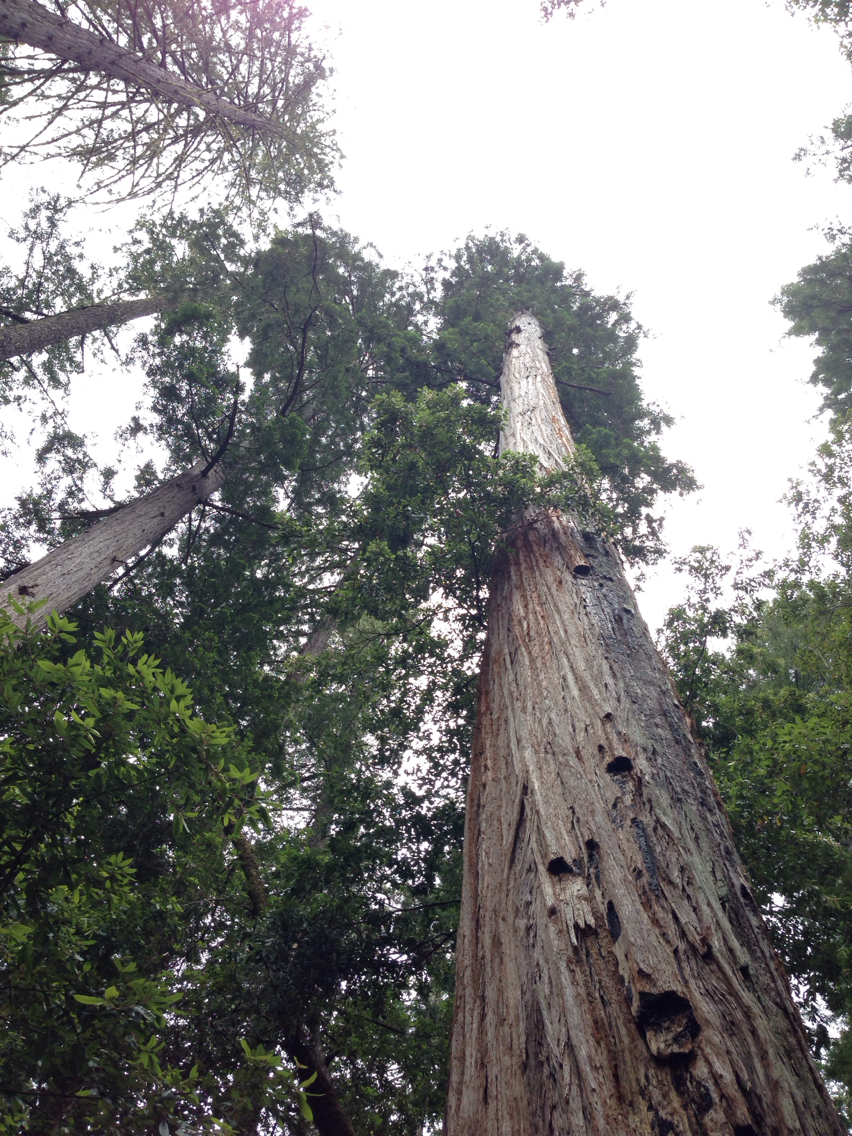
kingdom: Plantae
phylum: Tracheophyta
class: Pinopsida
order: Pinales
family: Cupressaceae
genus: Sequoia
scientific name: Sequoia sempervirens
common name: Coast redwood
